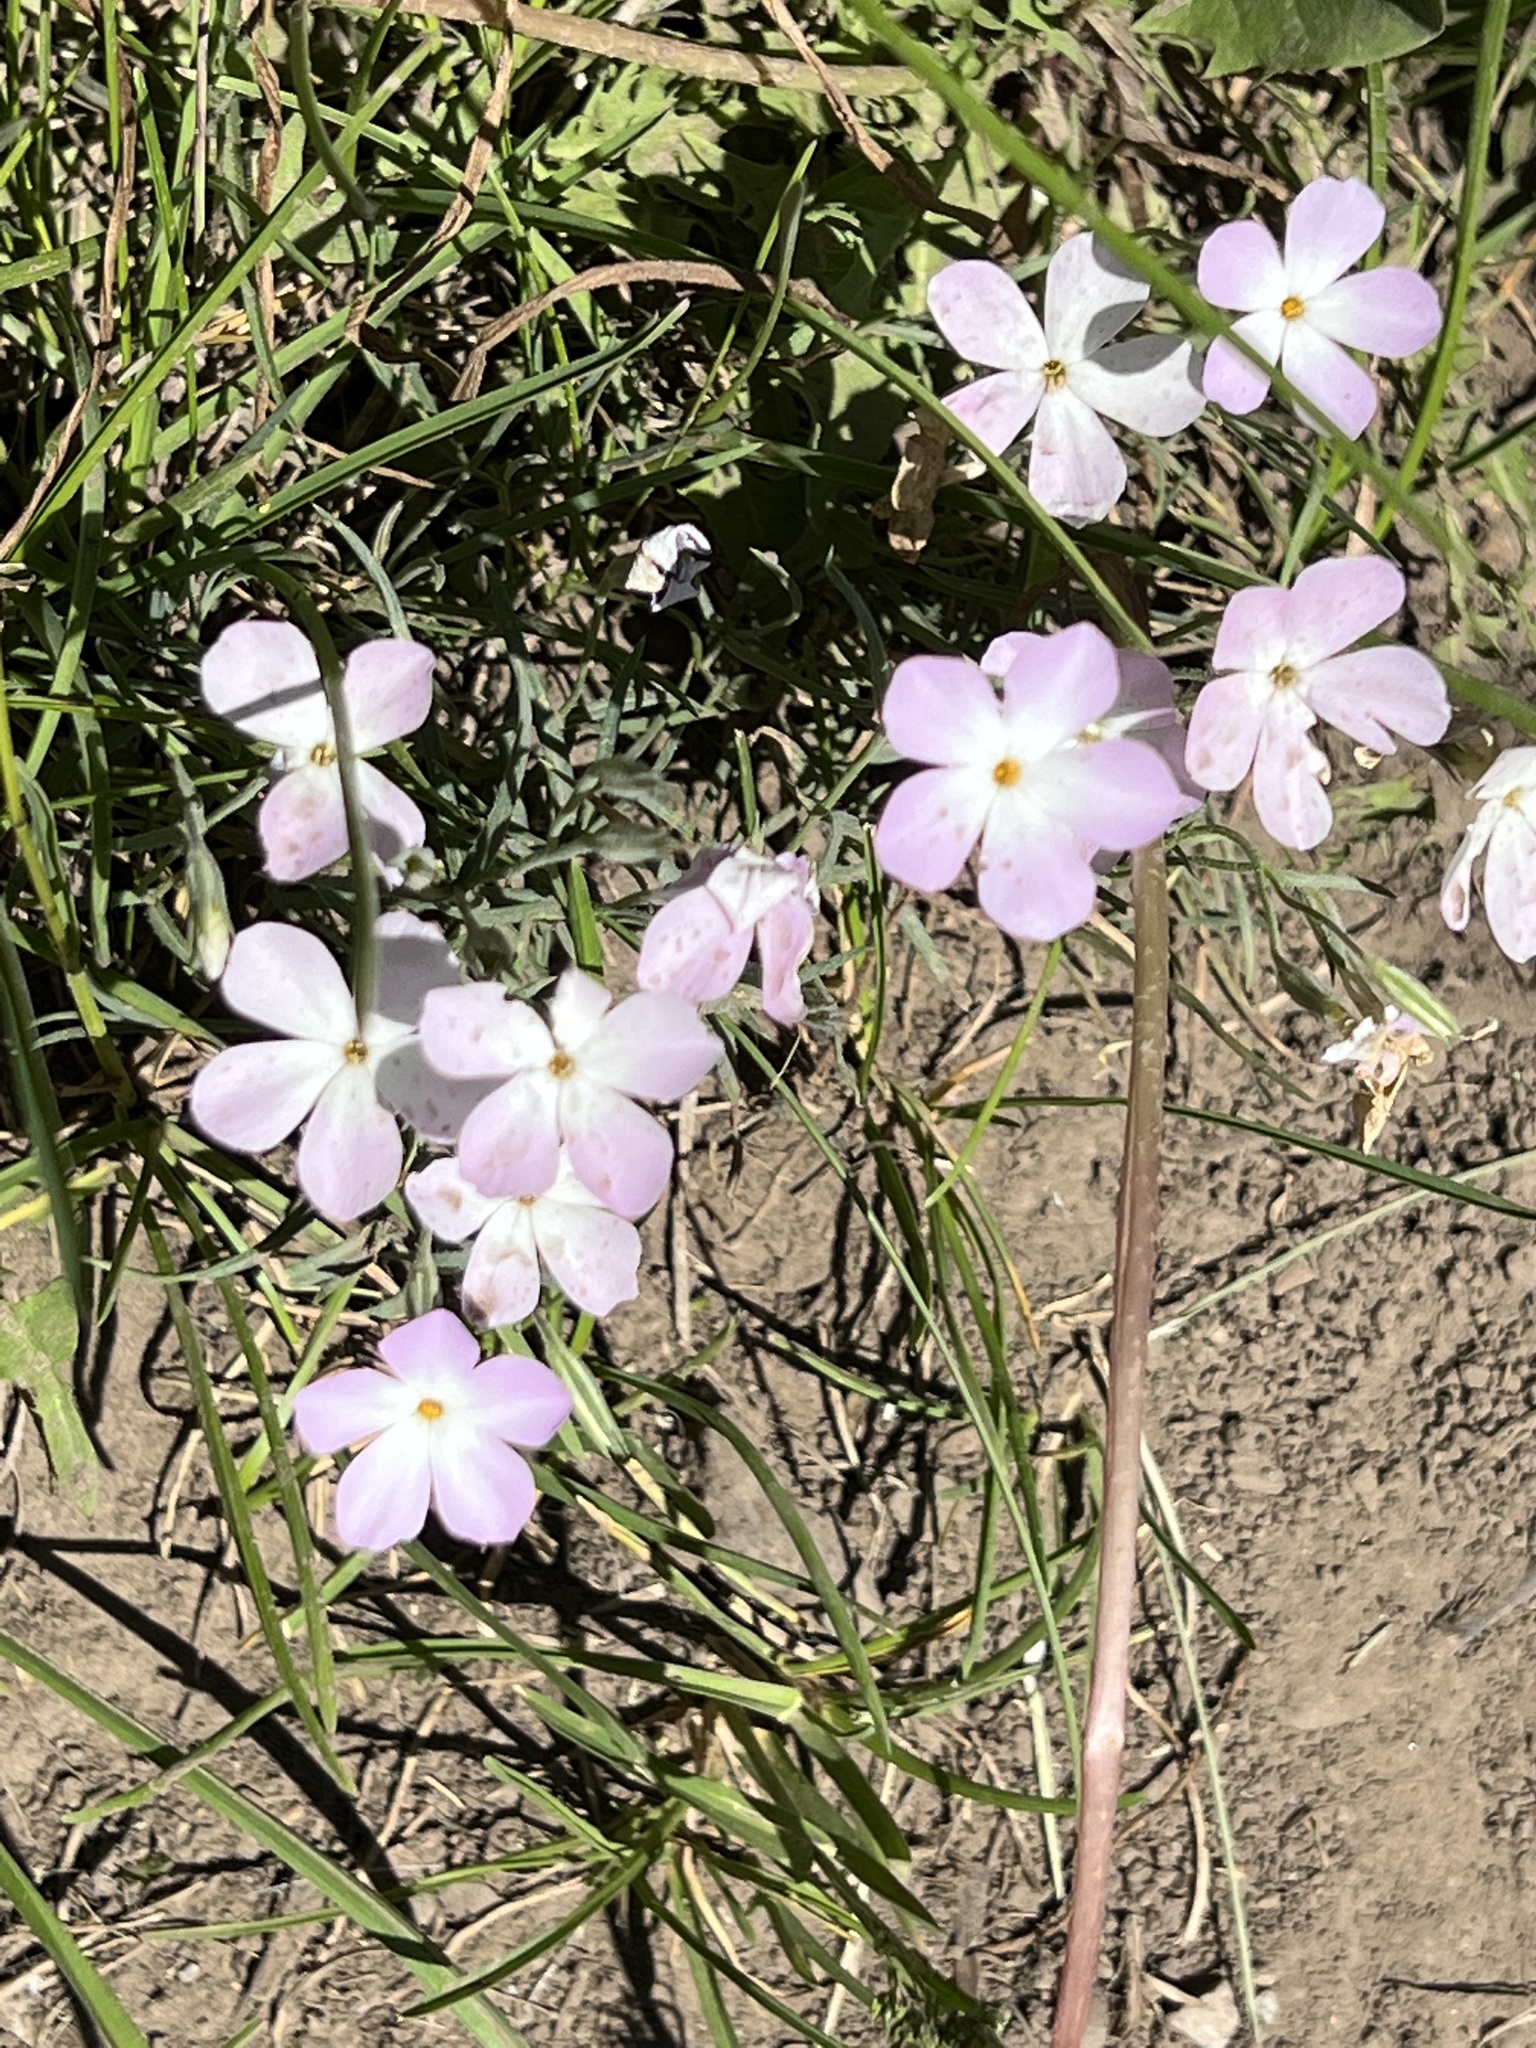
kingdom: Plantae
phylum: Tracheophyta
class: Magnoliopsida
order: Ericales
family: Polemoniaceae
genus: Phlox
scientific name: Phlox longifolia
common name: Longleaf phlox
